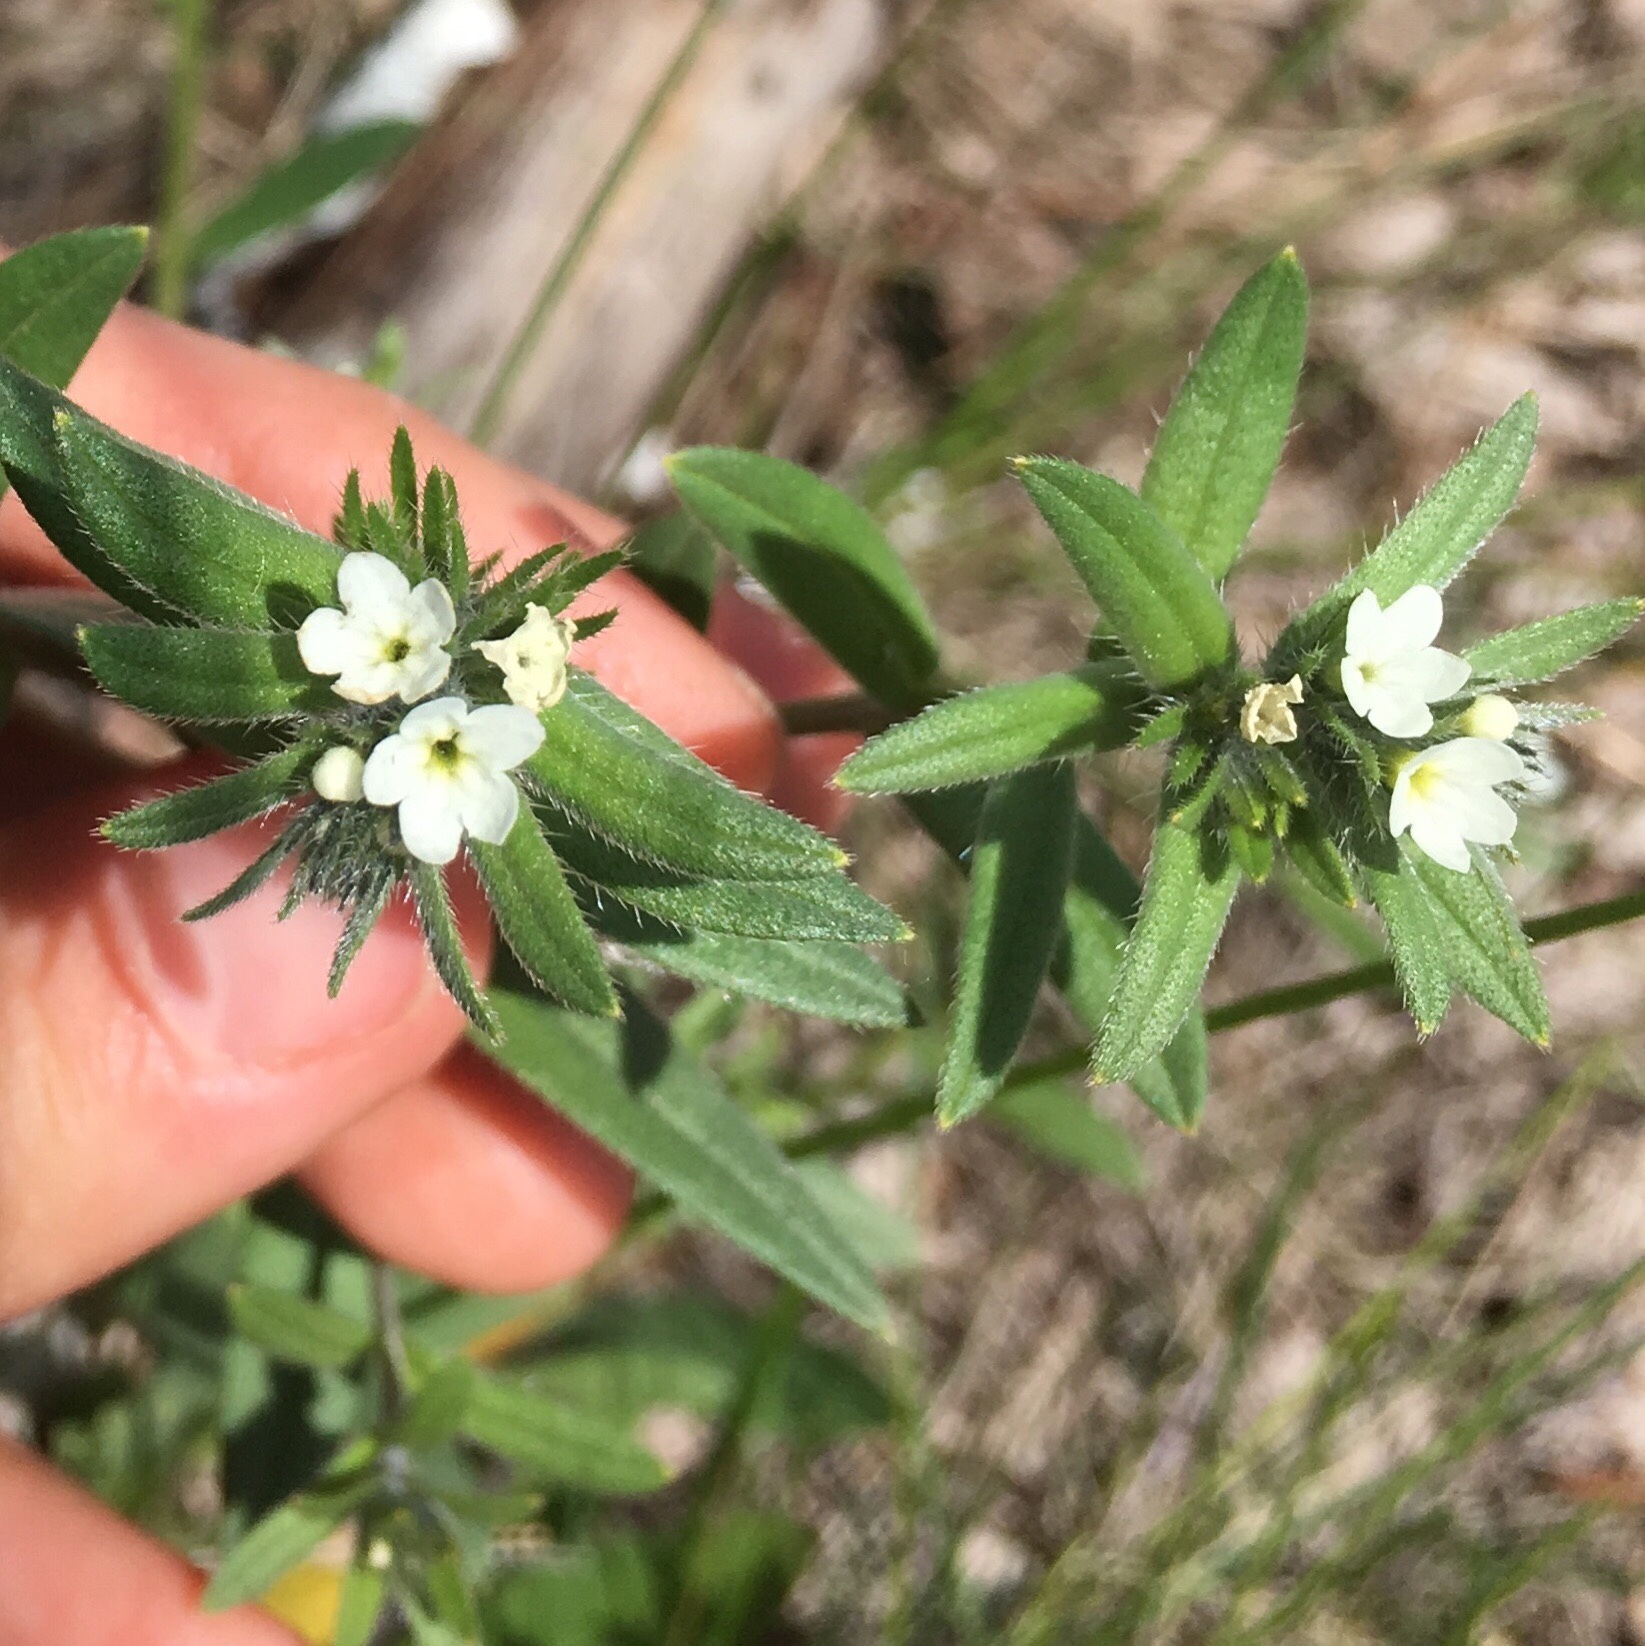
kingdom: Plantae
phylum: Tracheophyta
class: Magnoliopsida
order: Boraginales
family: Boraginaceae
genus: Buglossoides
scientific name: Buglossoides arvensis
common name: Corn gromwell
